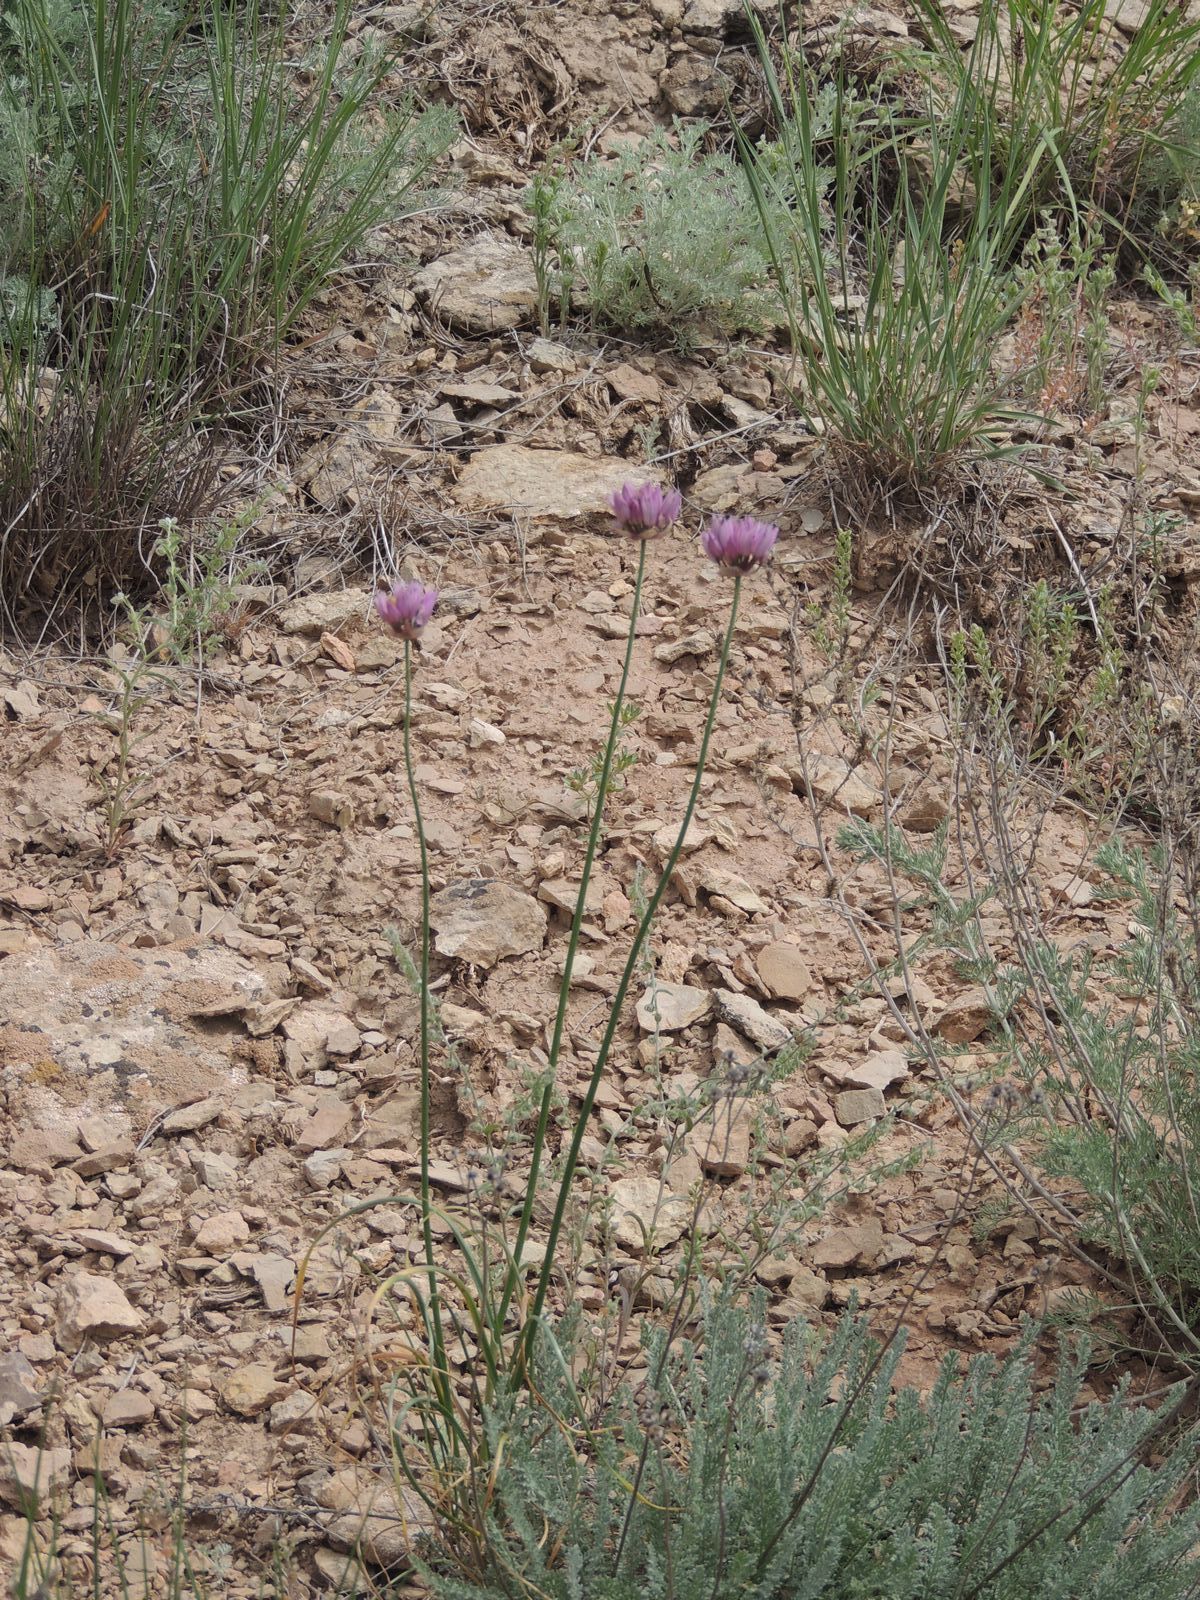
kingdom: Plantae
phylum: Tracheophyta
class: Liliopsida
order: Asparagales
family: Amaryllidaceae
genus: Allium
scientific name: Allium inderiense
